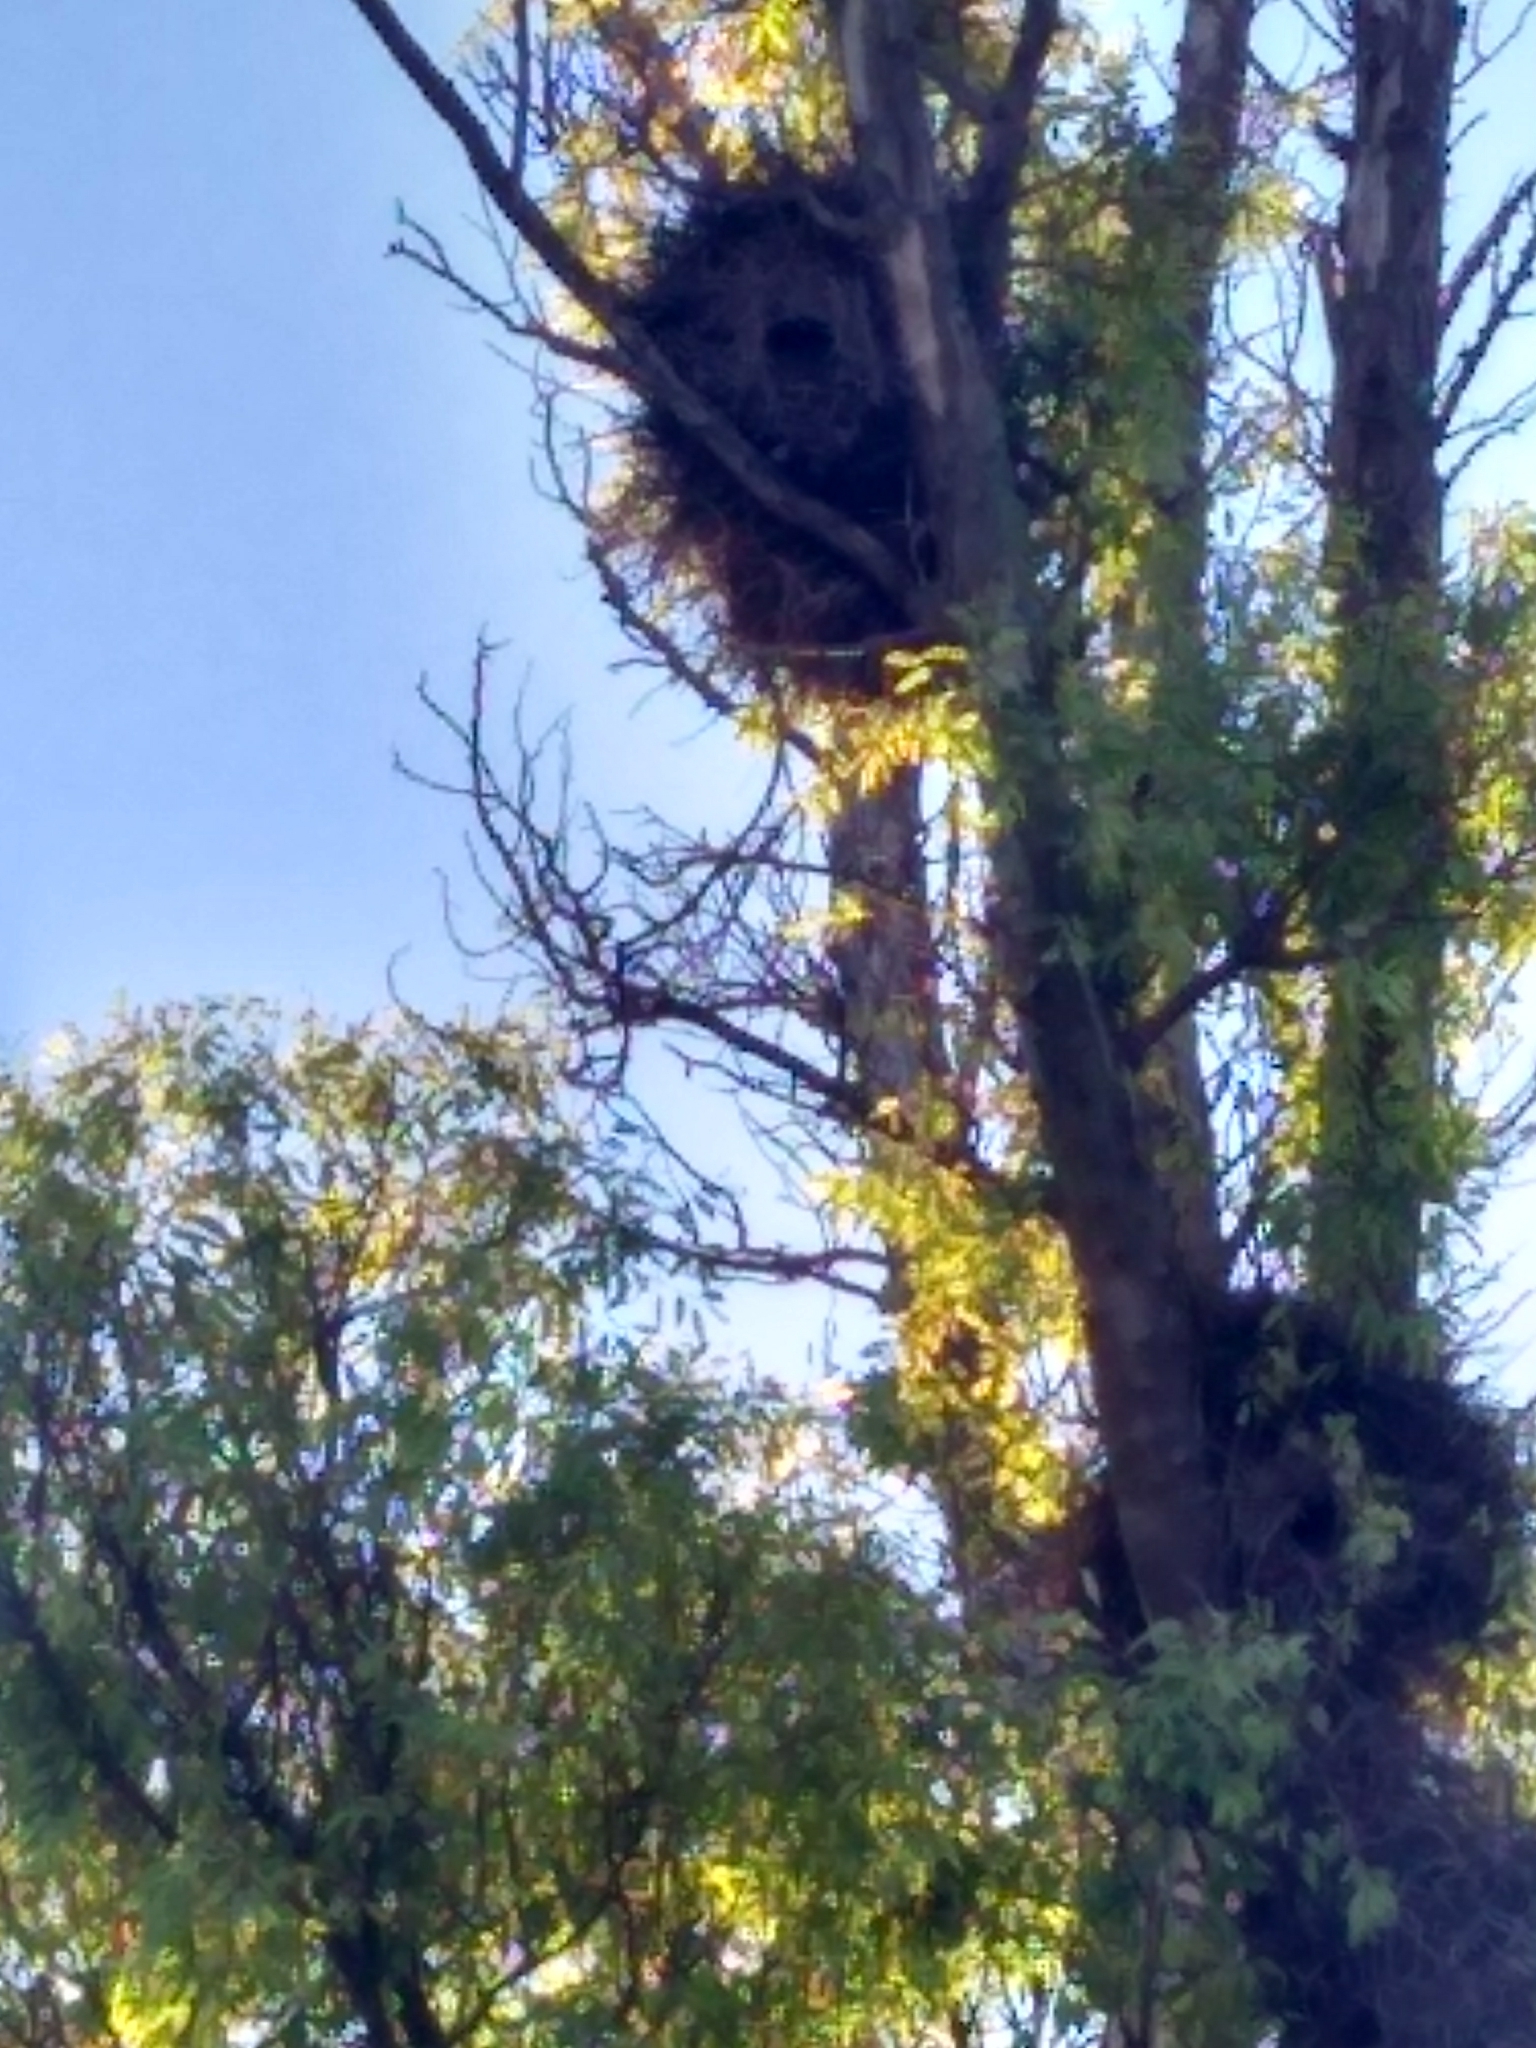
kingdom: Animalia
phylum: Chordata
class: Aves
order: Psittaciformes
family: Psittacidae
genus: Myiopsitta
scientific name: Myiopsitta monachus
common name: Monk parakeet
